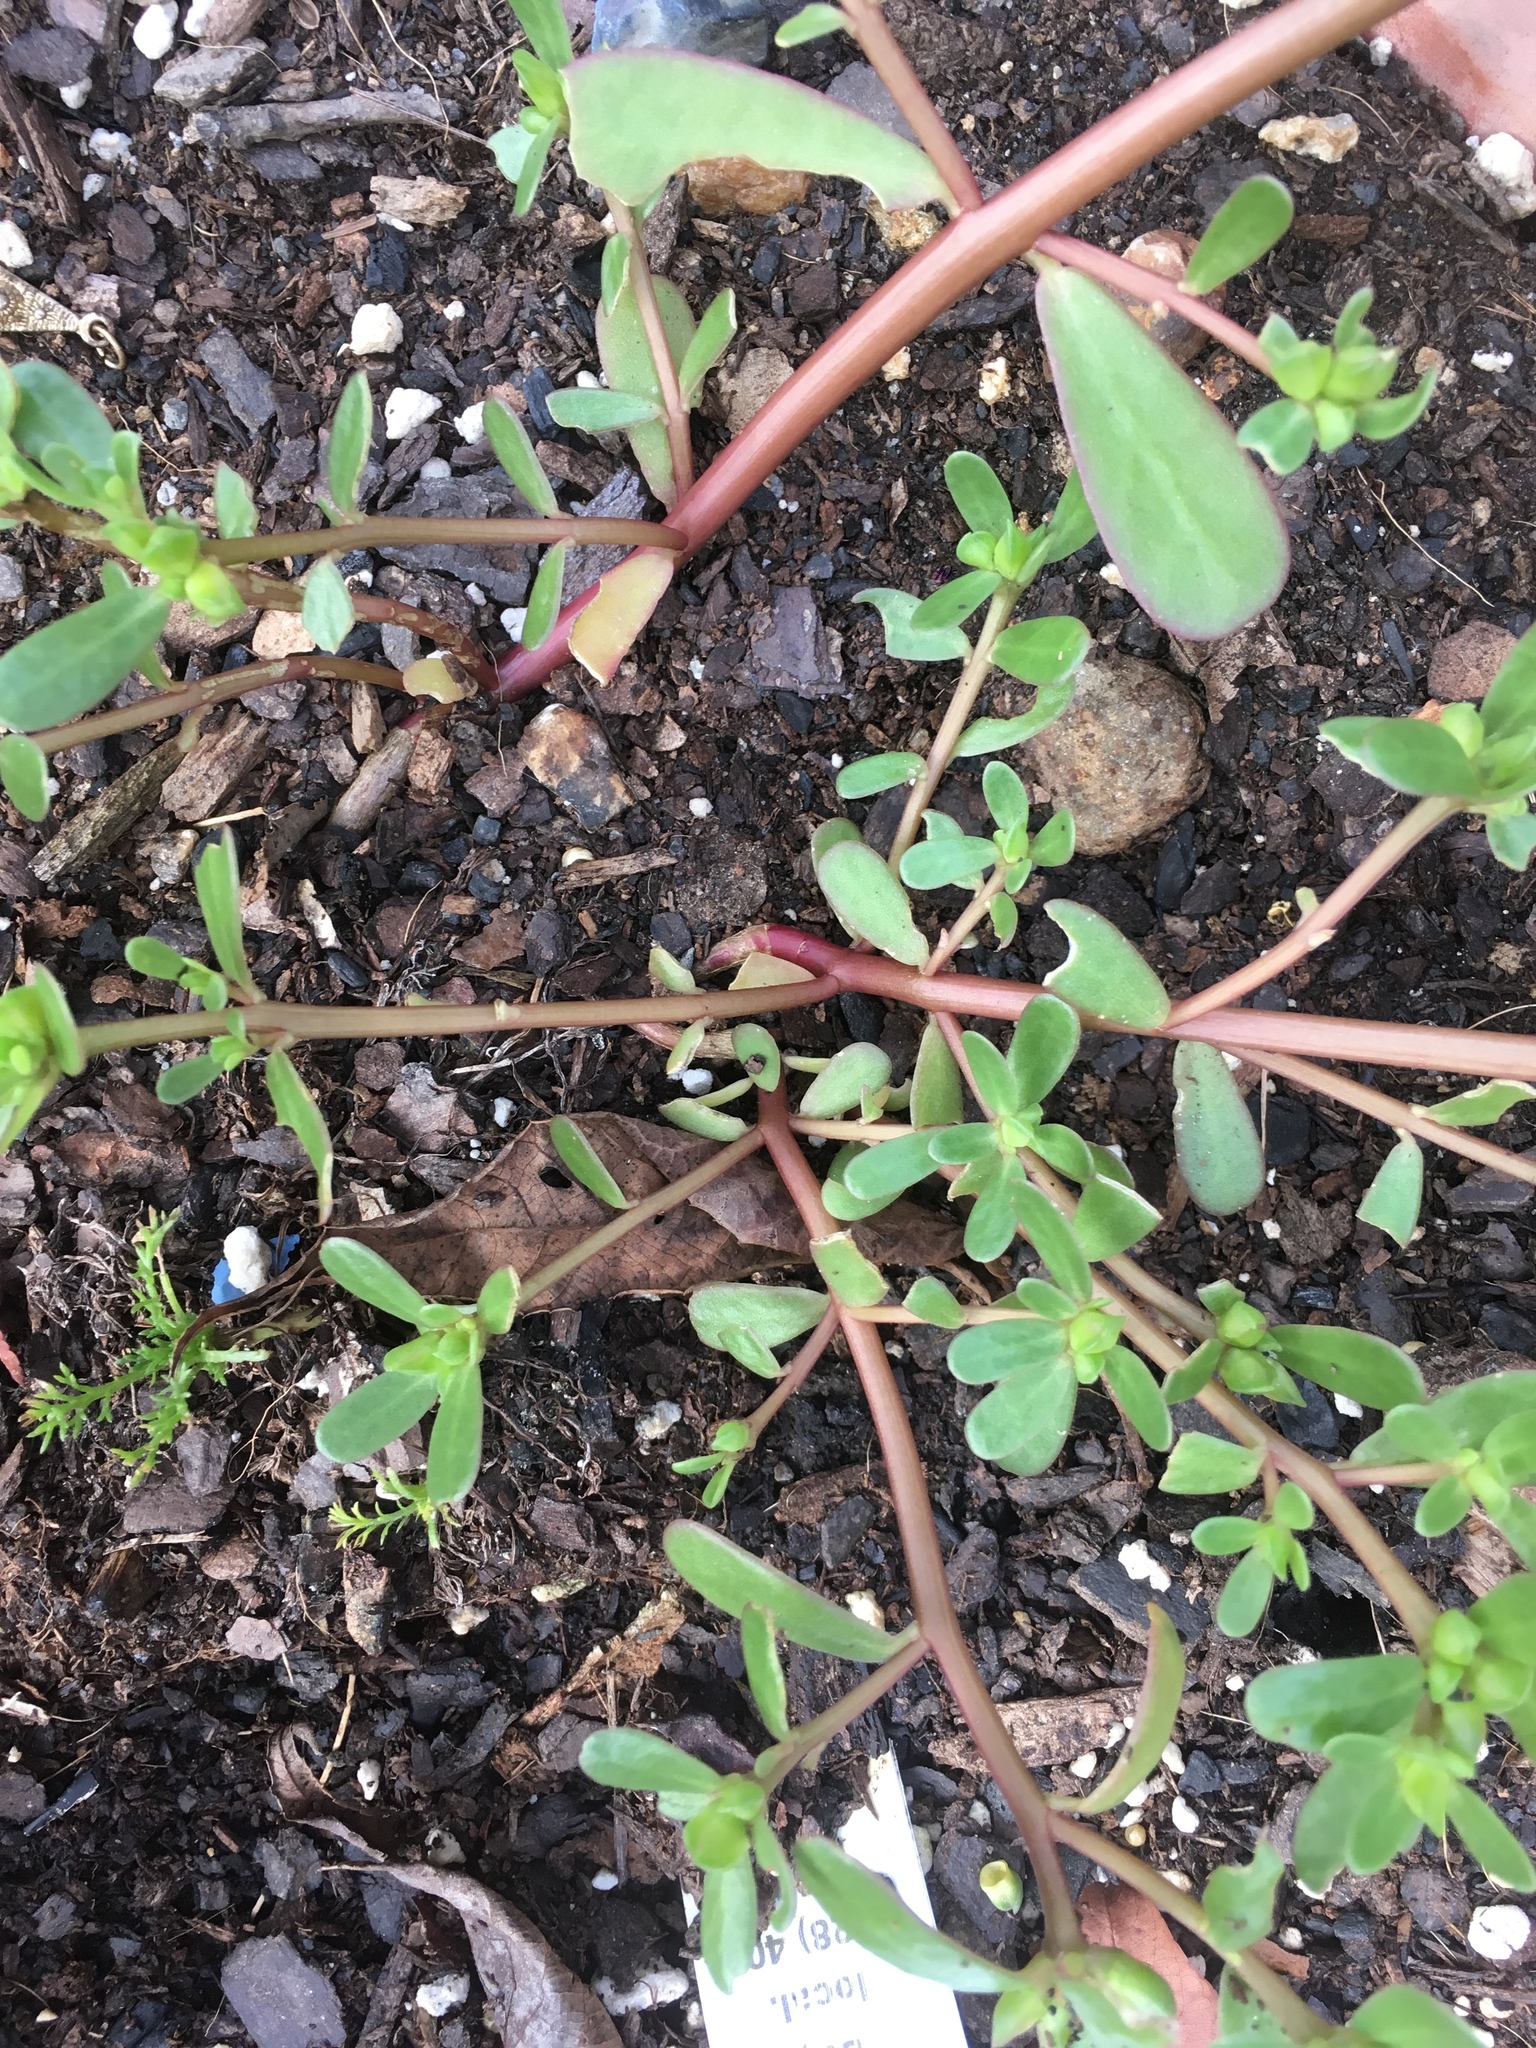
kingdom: Plantae
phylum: Tracheophyta
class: Magnoliopsida
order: Caryophyllales
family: Portulacaceae
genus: Portulaca
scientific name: Portulaca oleracea
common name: Common purslane
